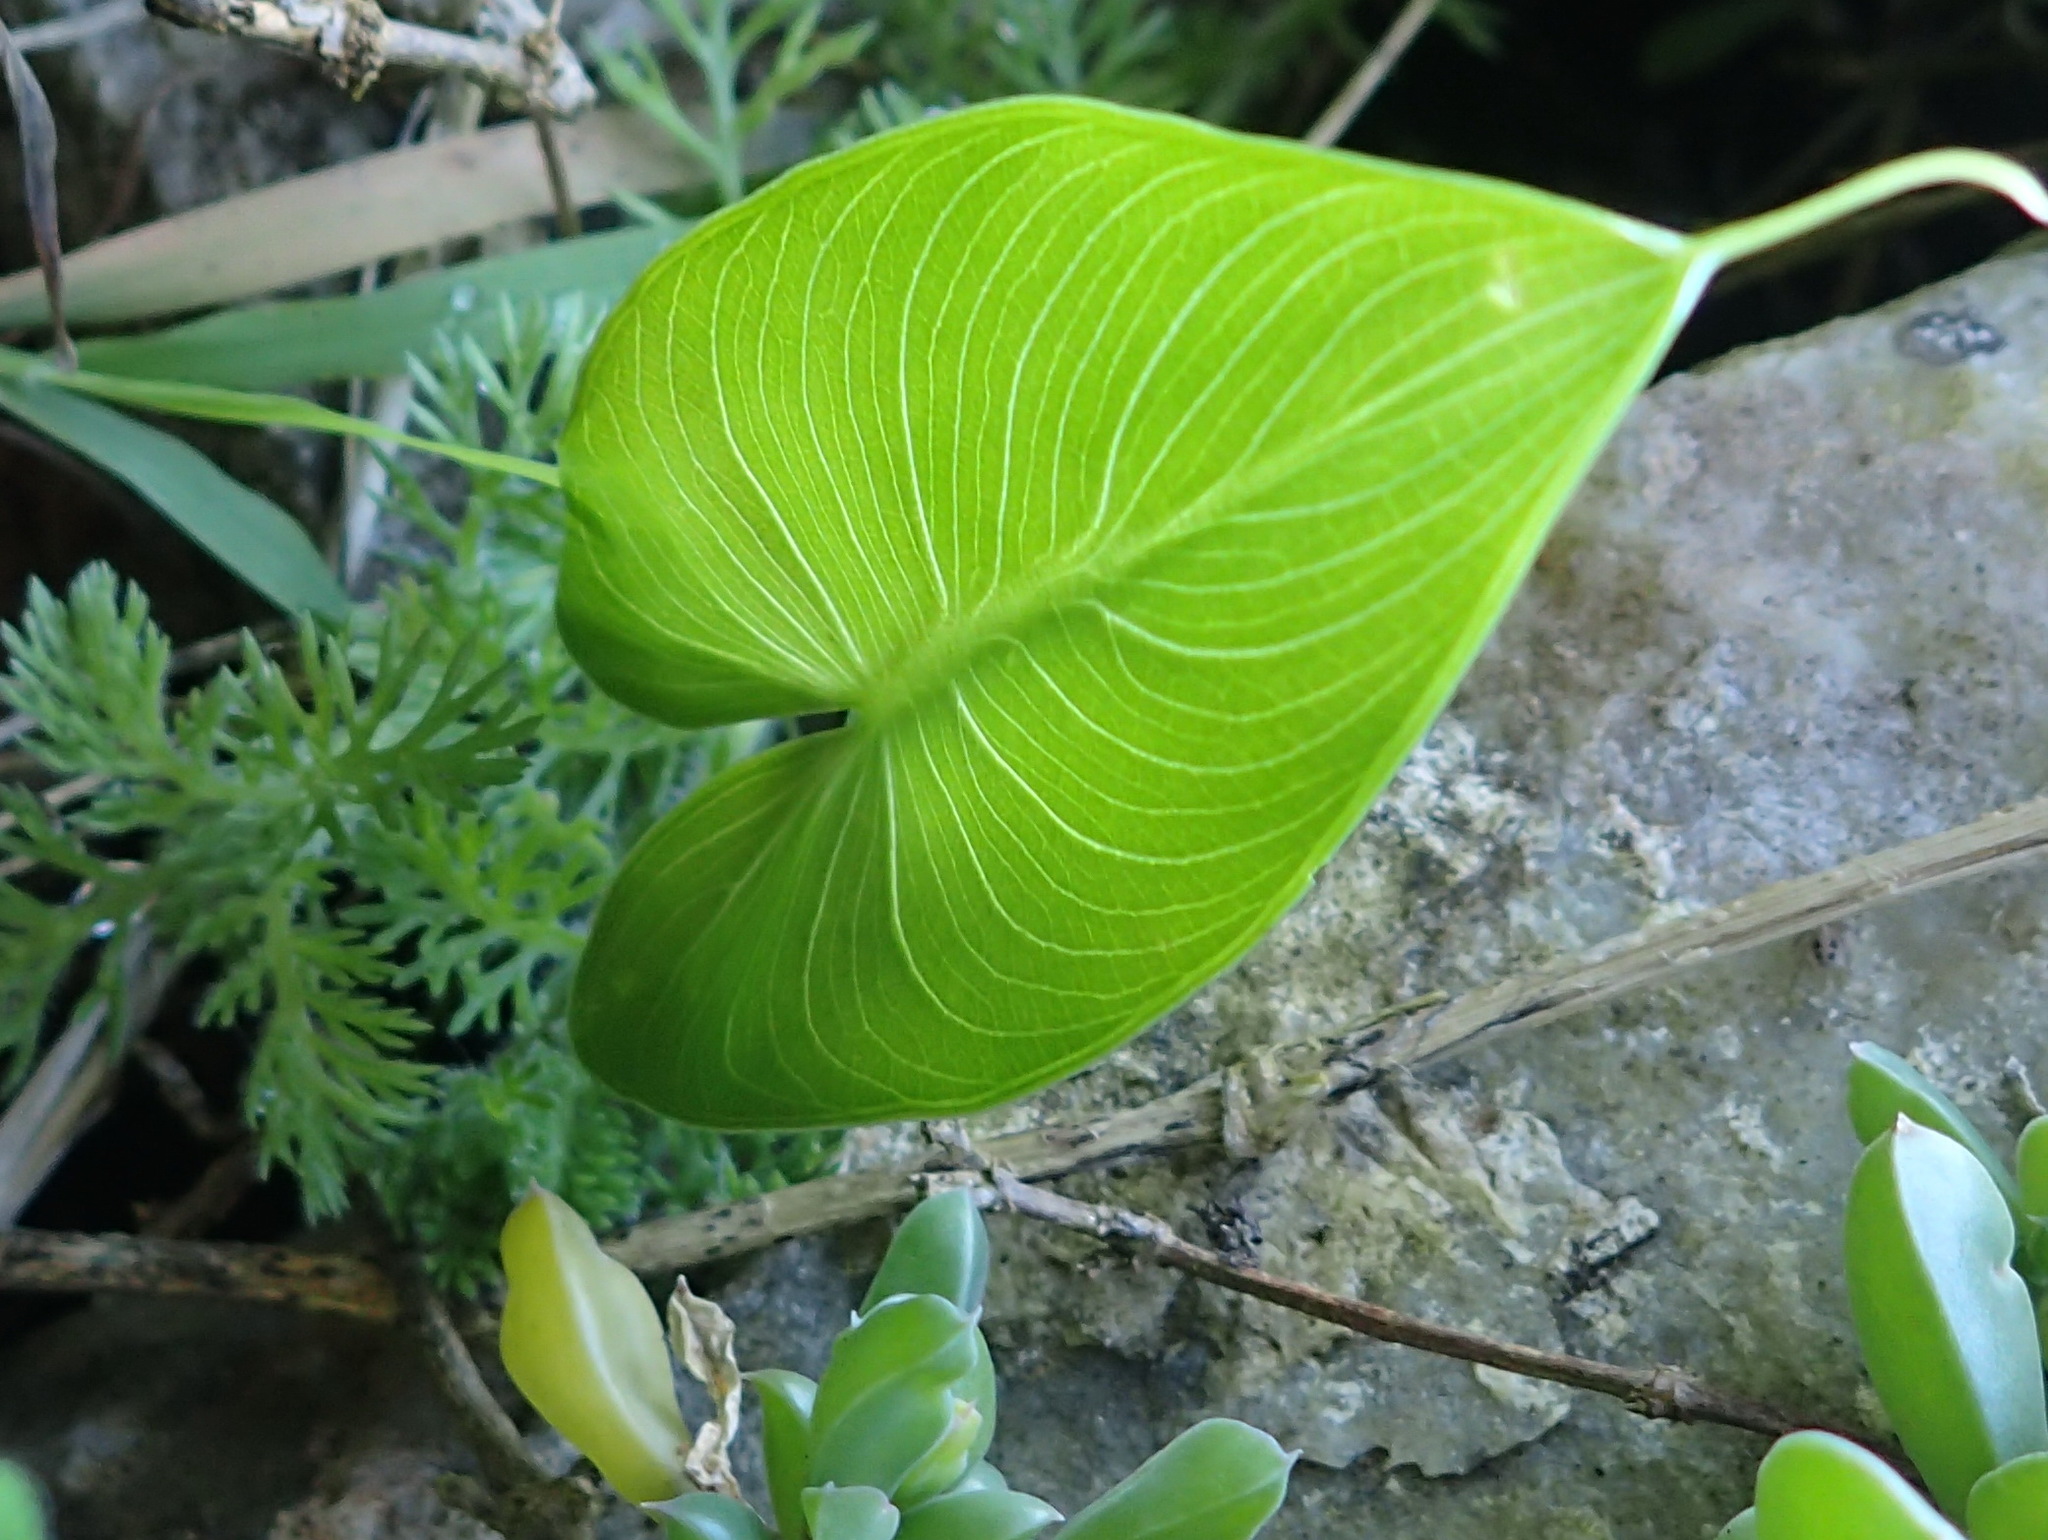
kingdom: Plantae
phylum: Tracheophyta
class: Liliopsida
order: Alismatales
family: Araceae
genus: Zantedeschia
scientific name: Zantedeschia aethiopica
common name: Altar-lily
